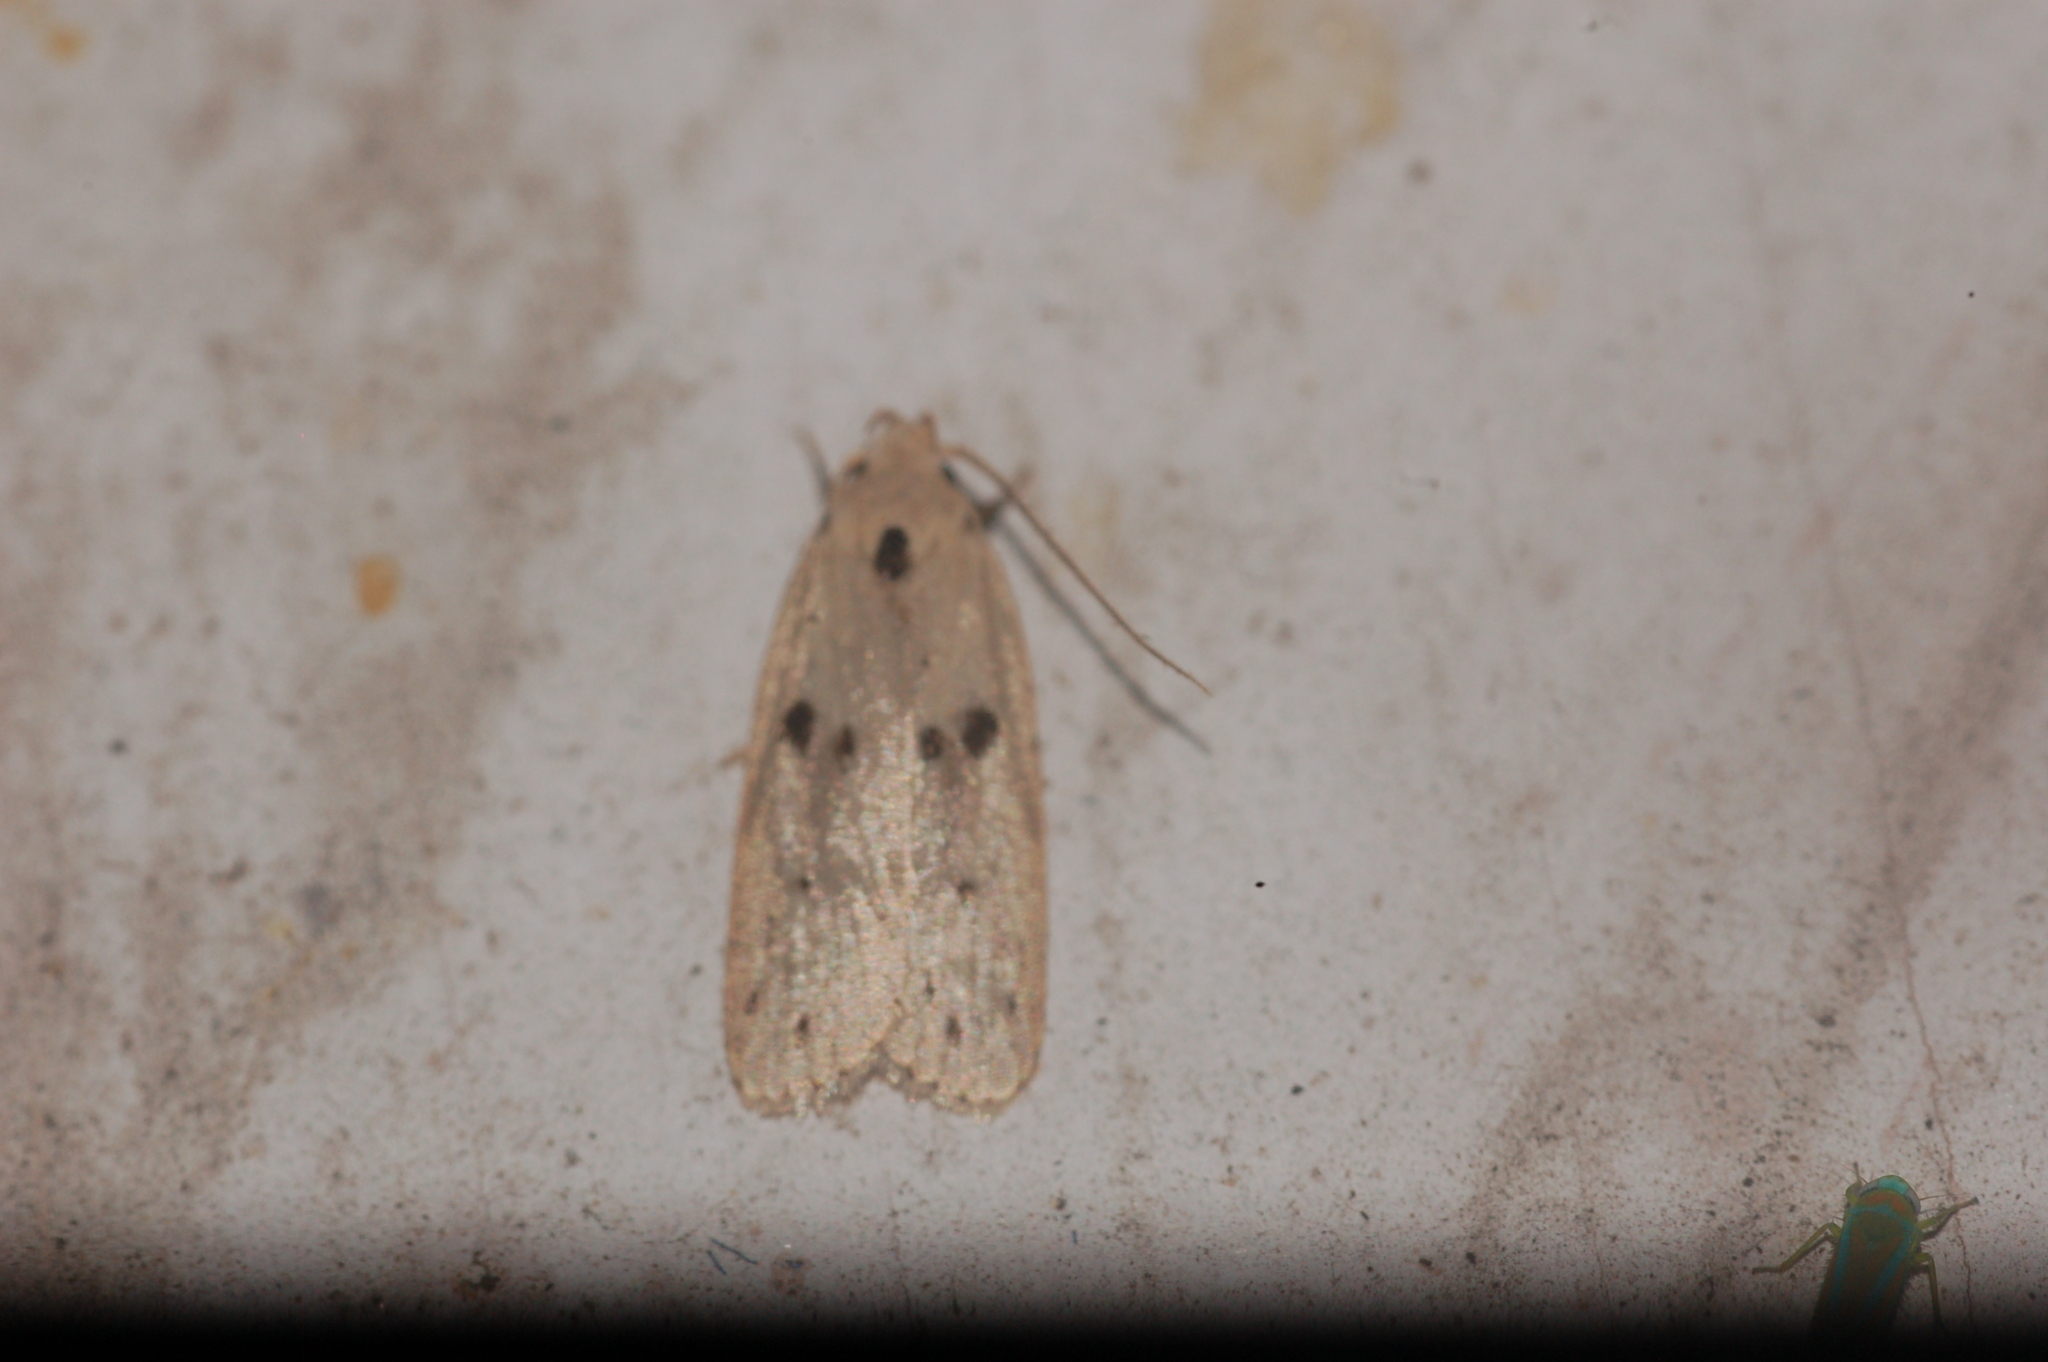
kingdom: Animalia
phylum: Arthropoda
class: Insecta
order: Lepidoptera
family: Peleopodidae
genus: Scythropiodes
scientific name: Scythropiodes issikii
